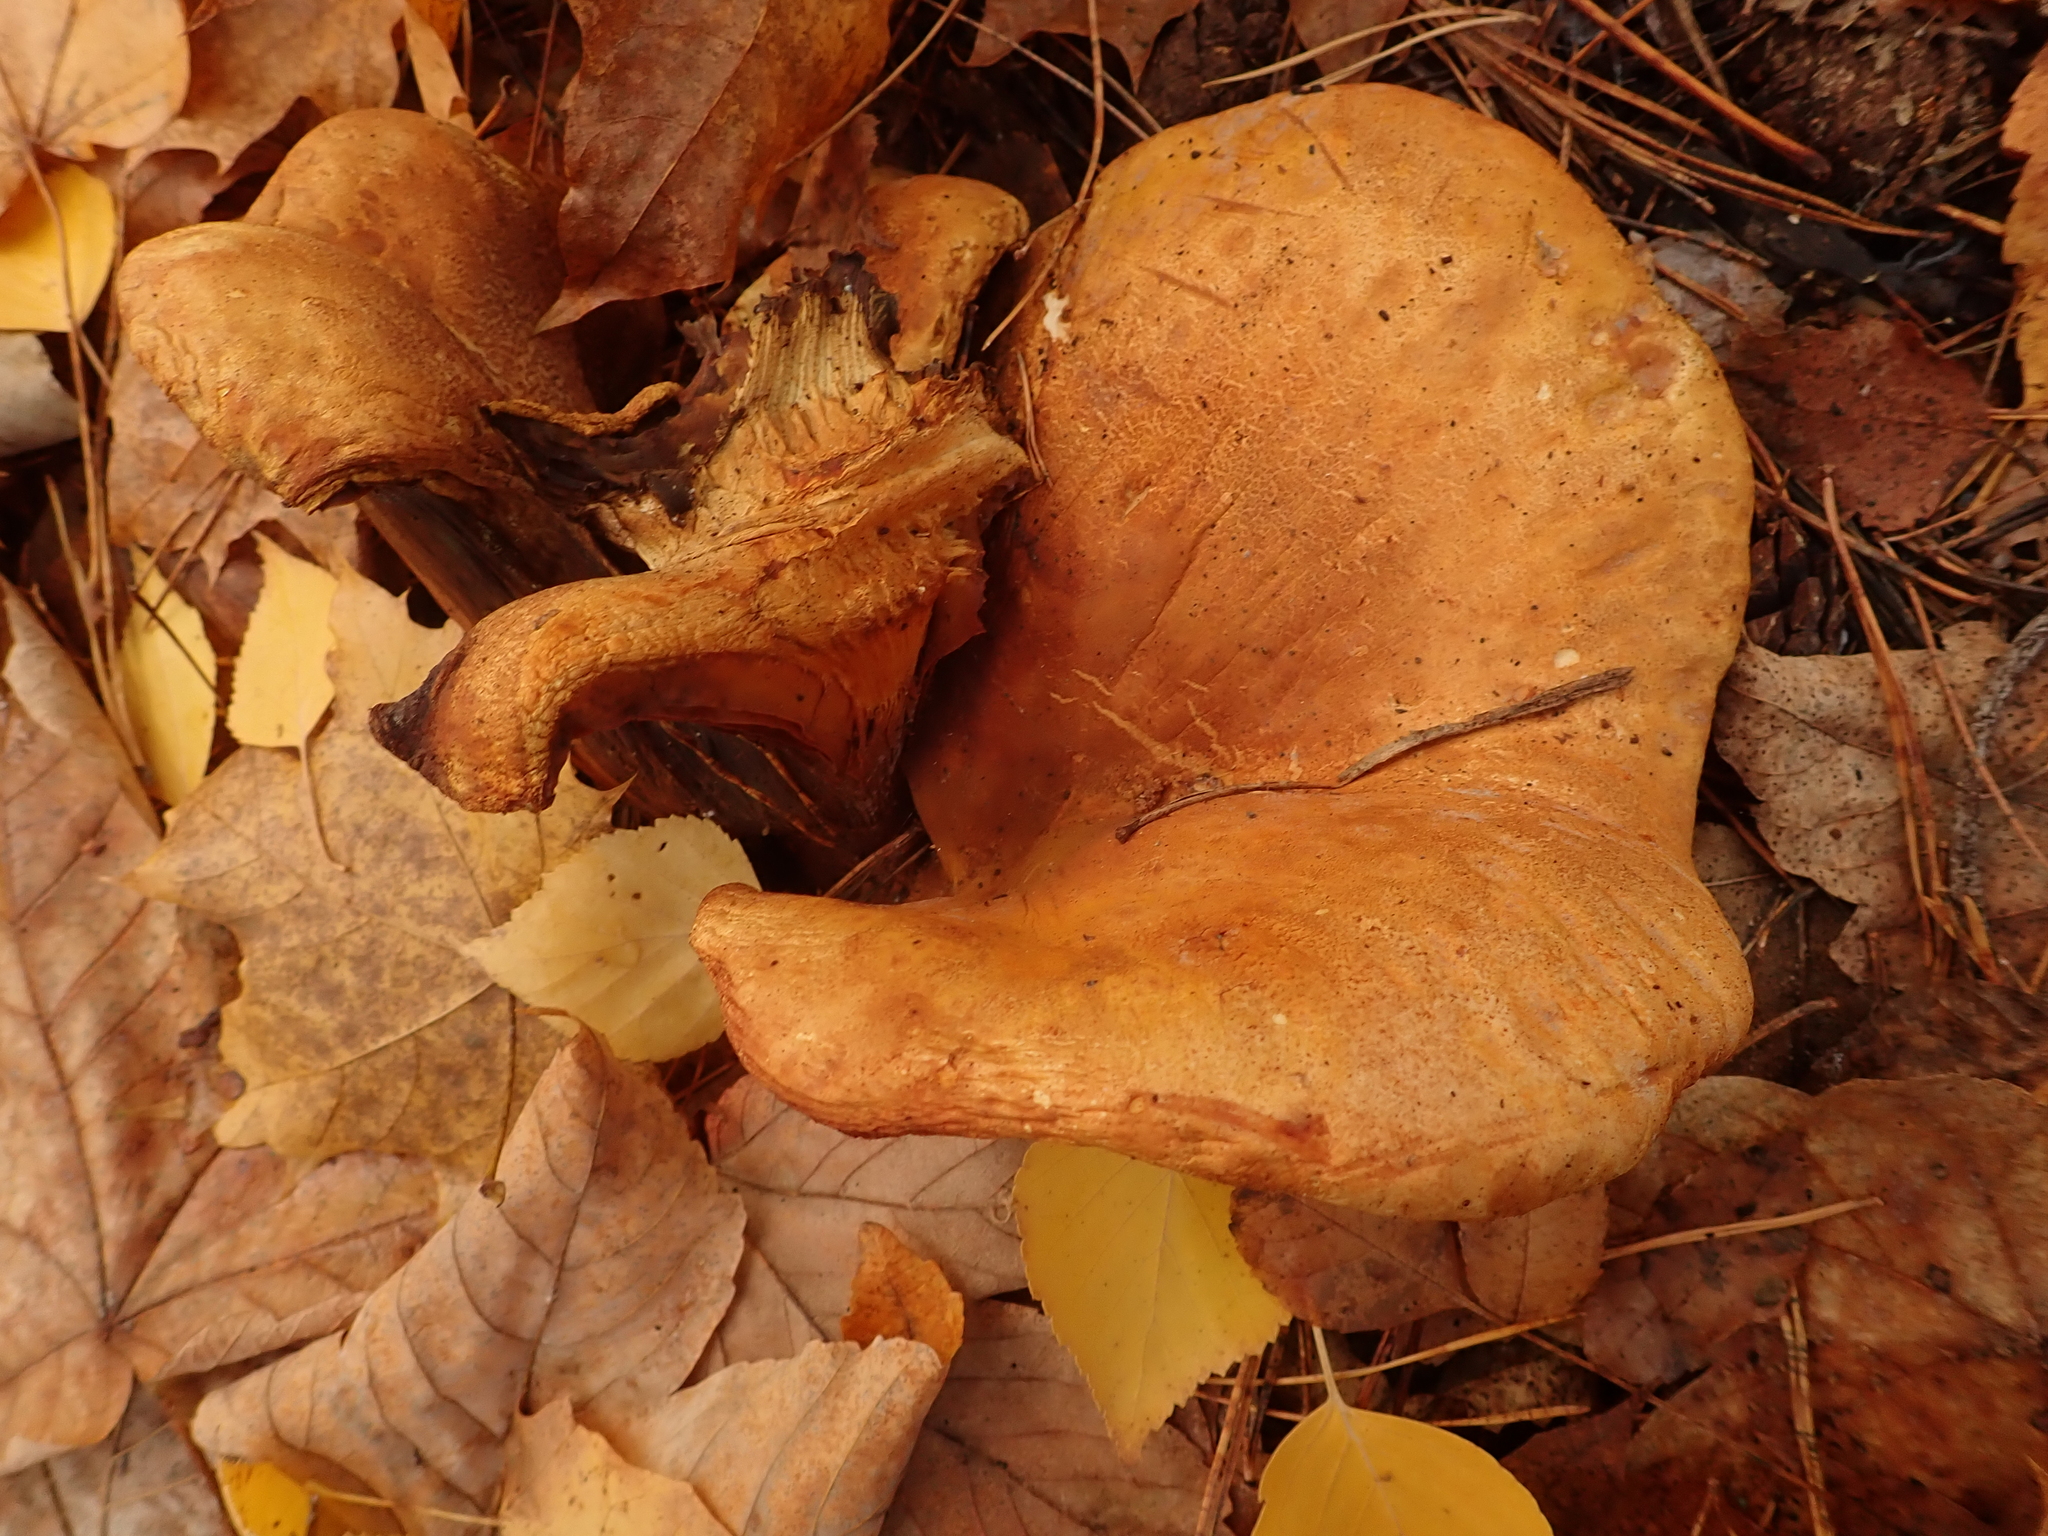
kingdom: Fungi
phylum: Basidiomycota
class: Agaricomycetes
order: Boletales
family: Paxillaceae
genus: Paxillus
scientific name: Paxillus involutus
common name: Brown roll rim
